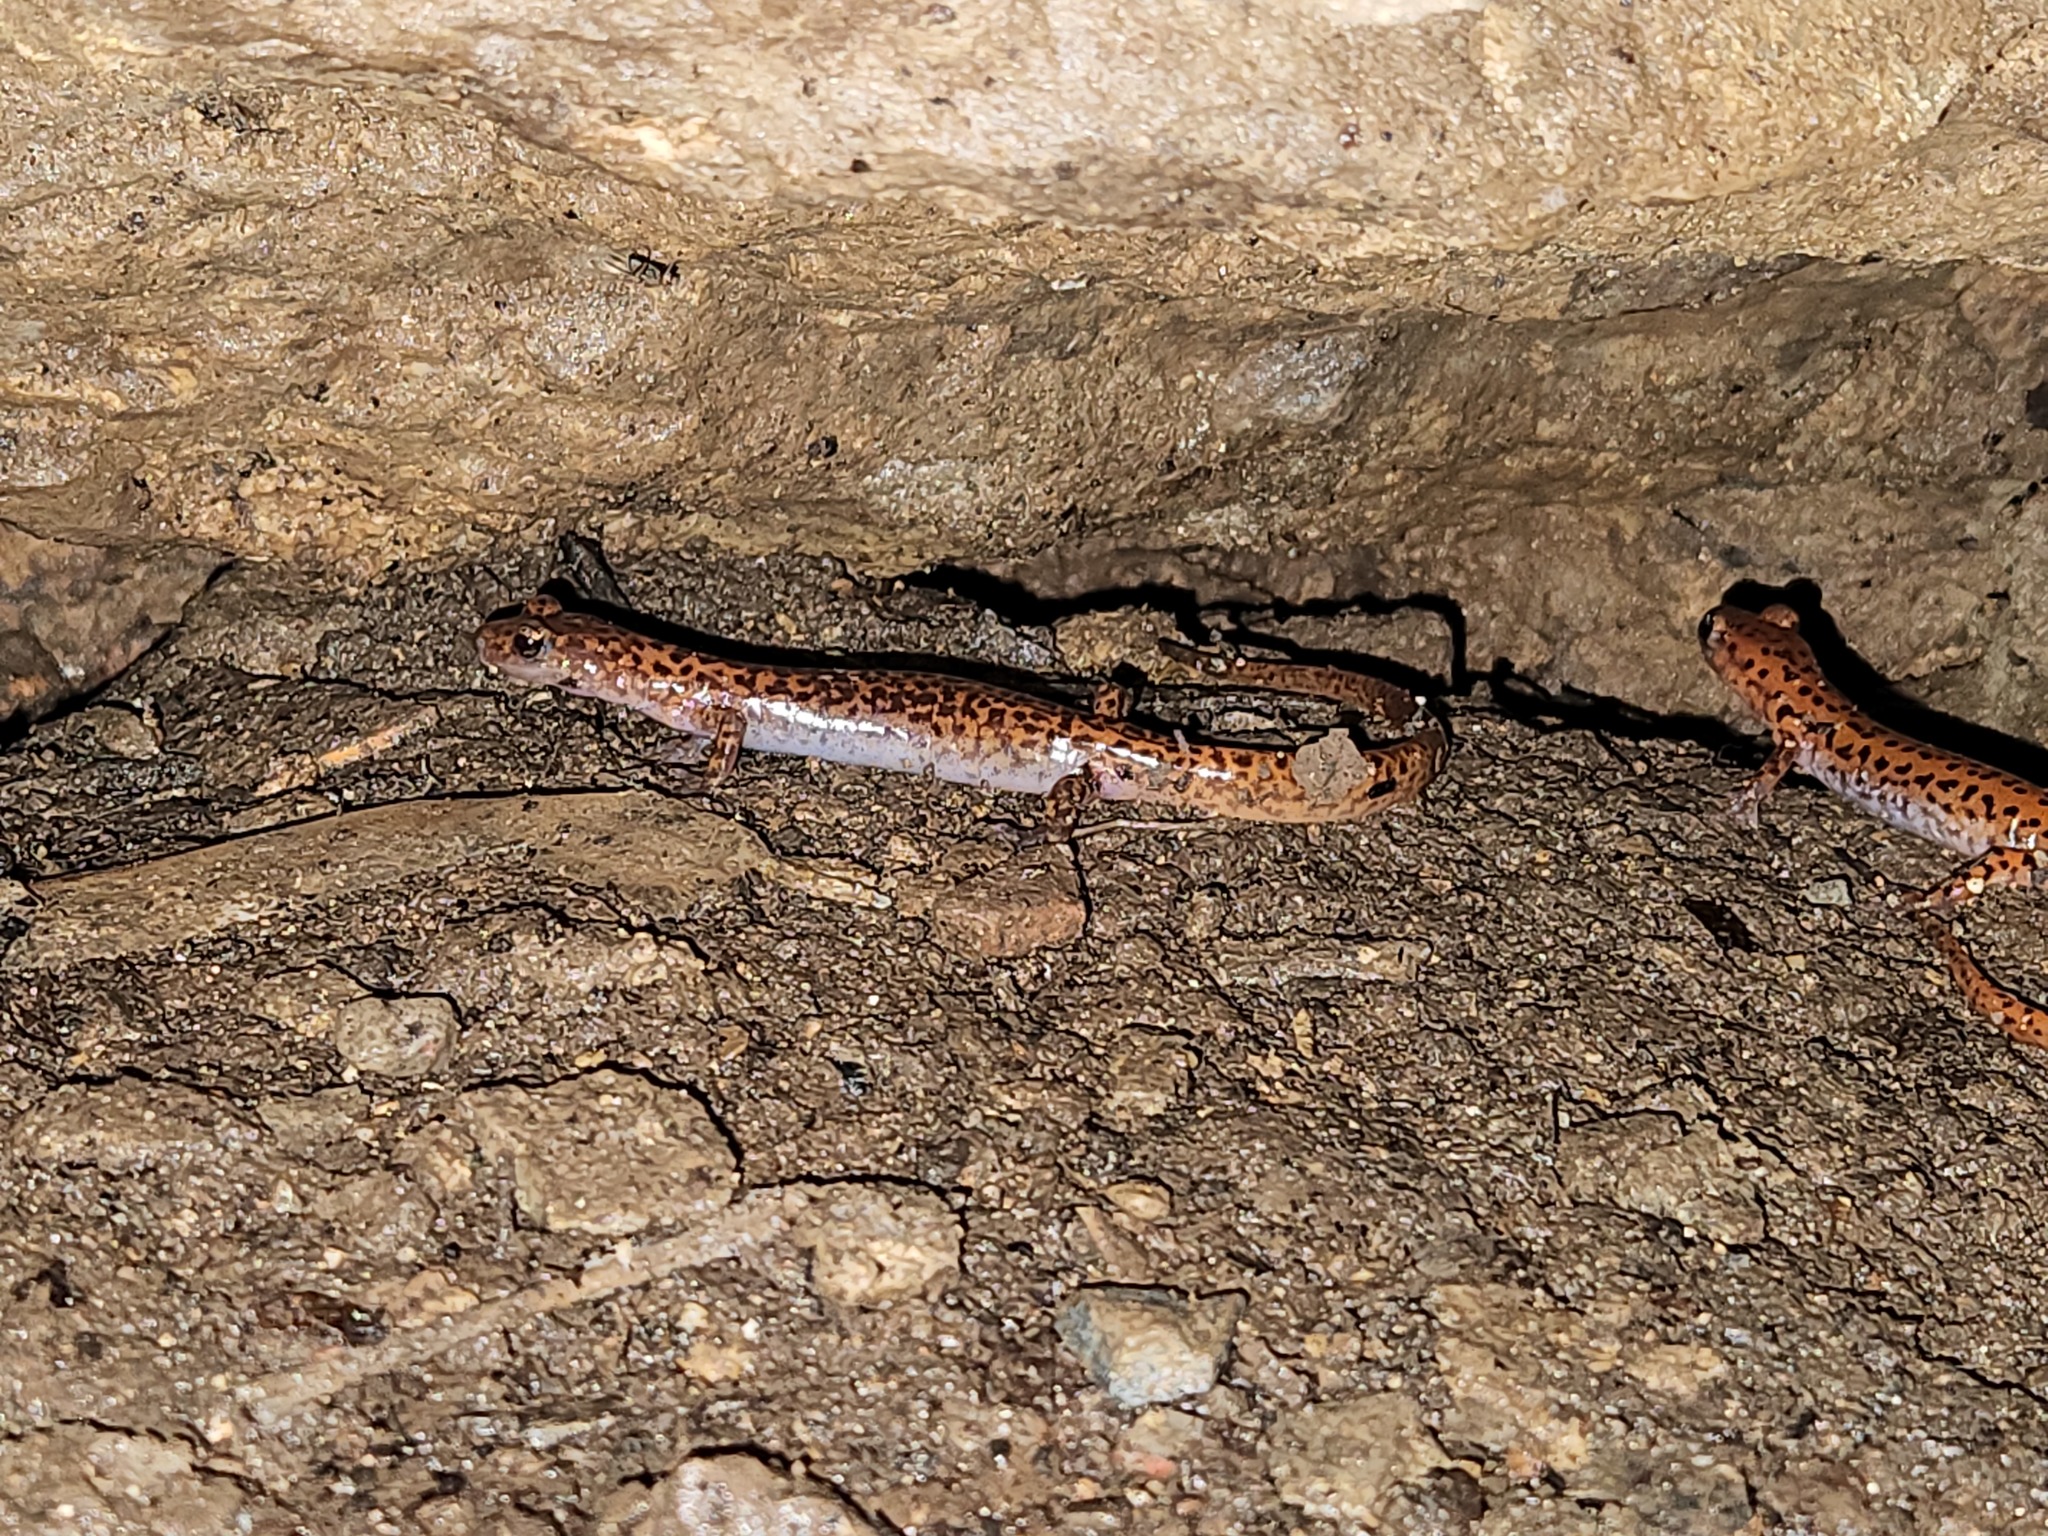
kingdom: Animalia
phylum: Chordata
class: Amphibia
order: Caudata
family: Plethodontidae
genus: Eurycea
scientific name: Eurycea lucifuga
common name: Cave salamander
